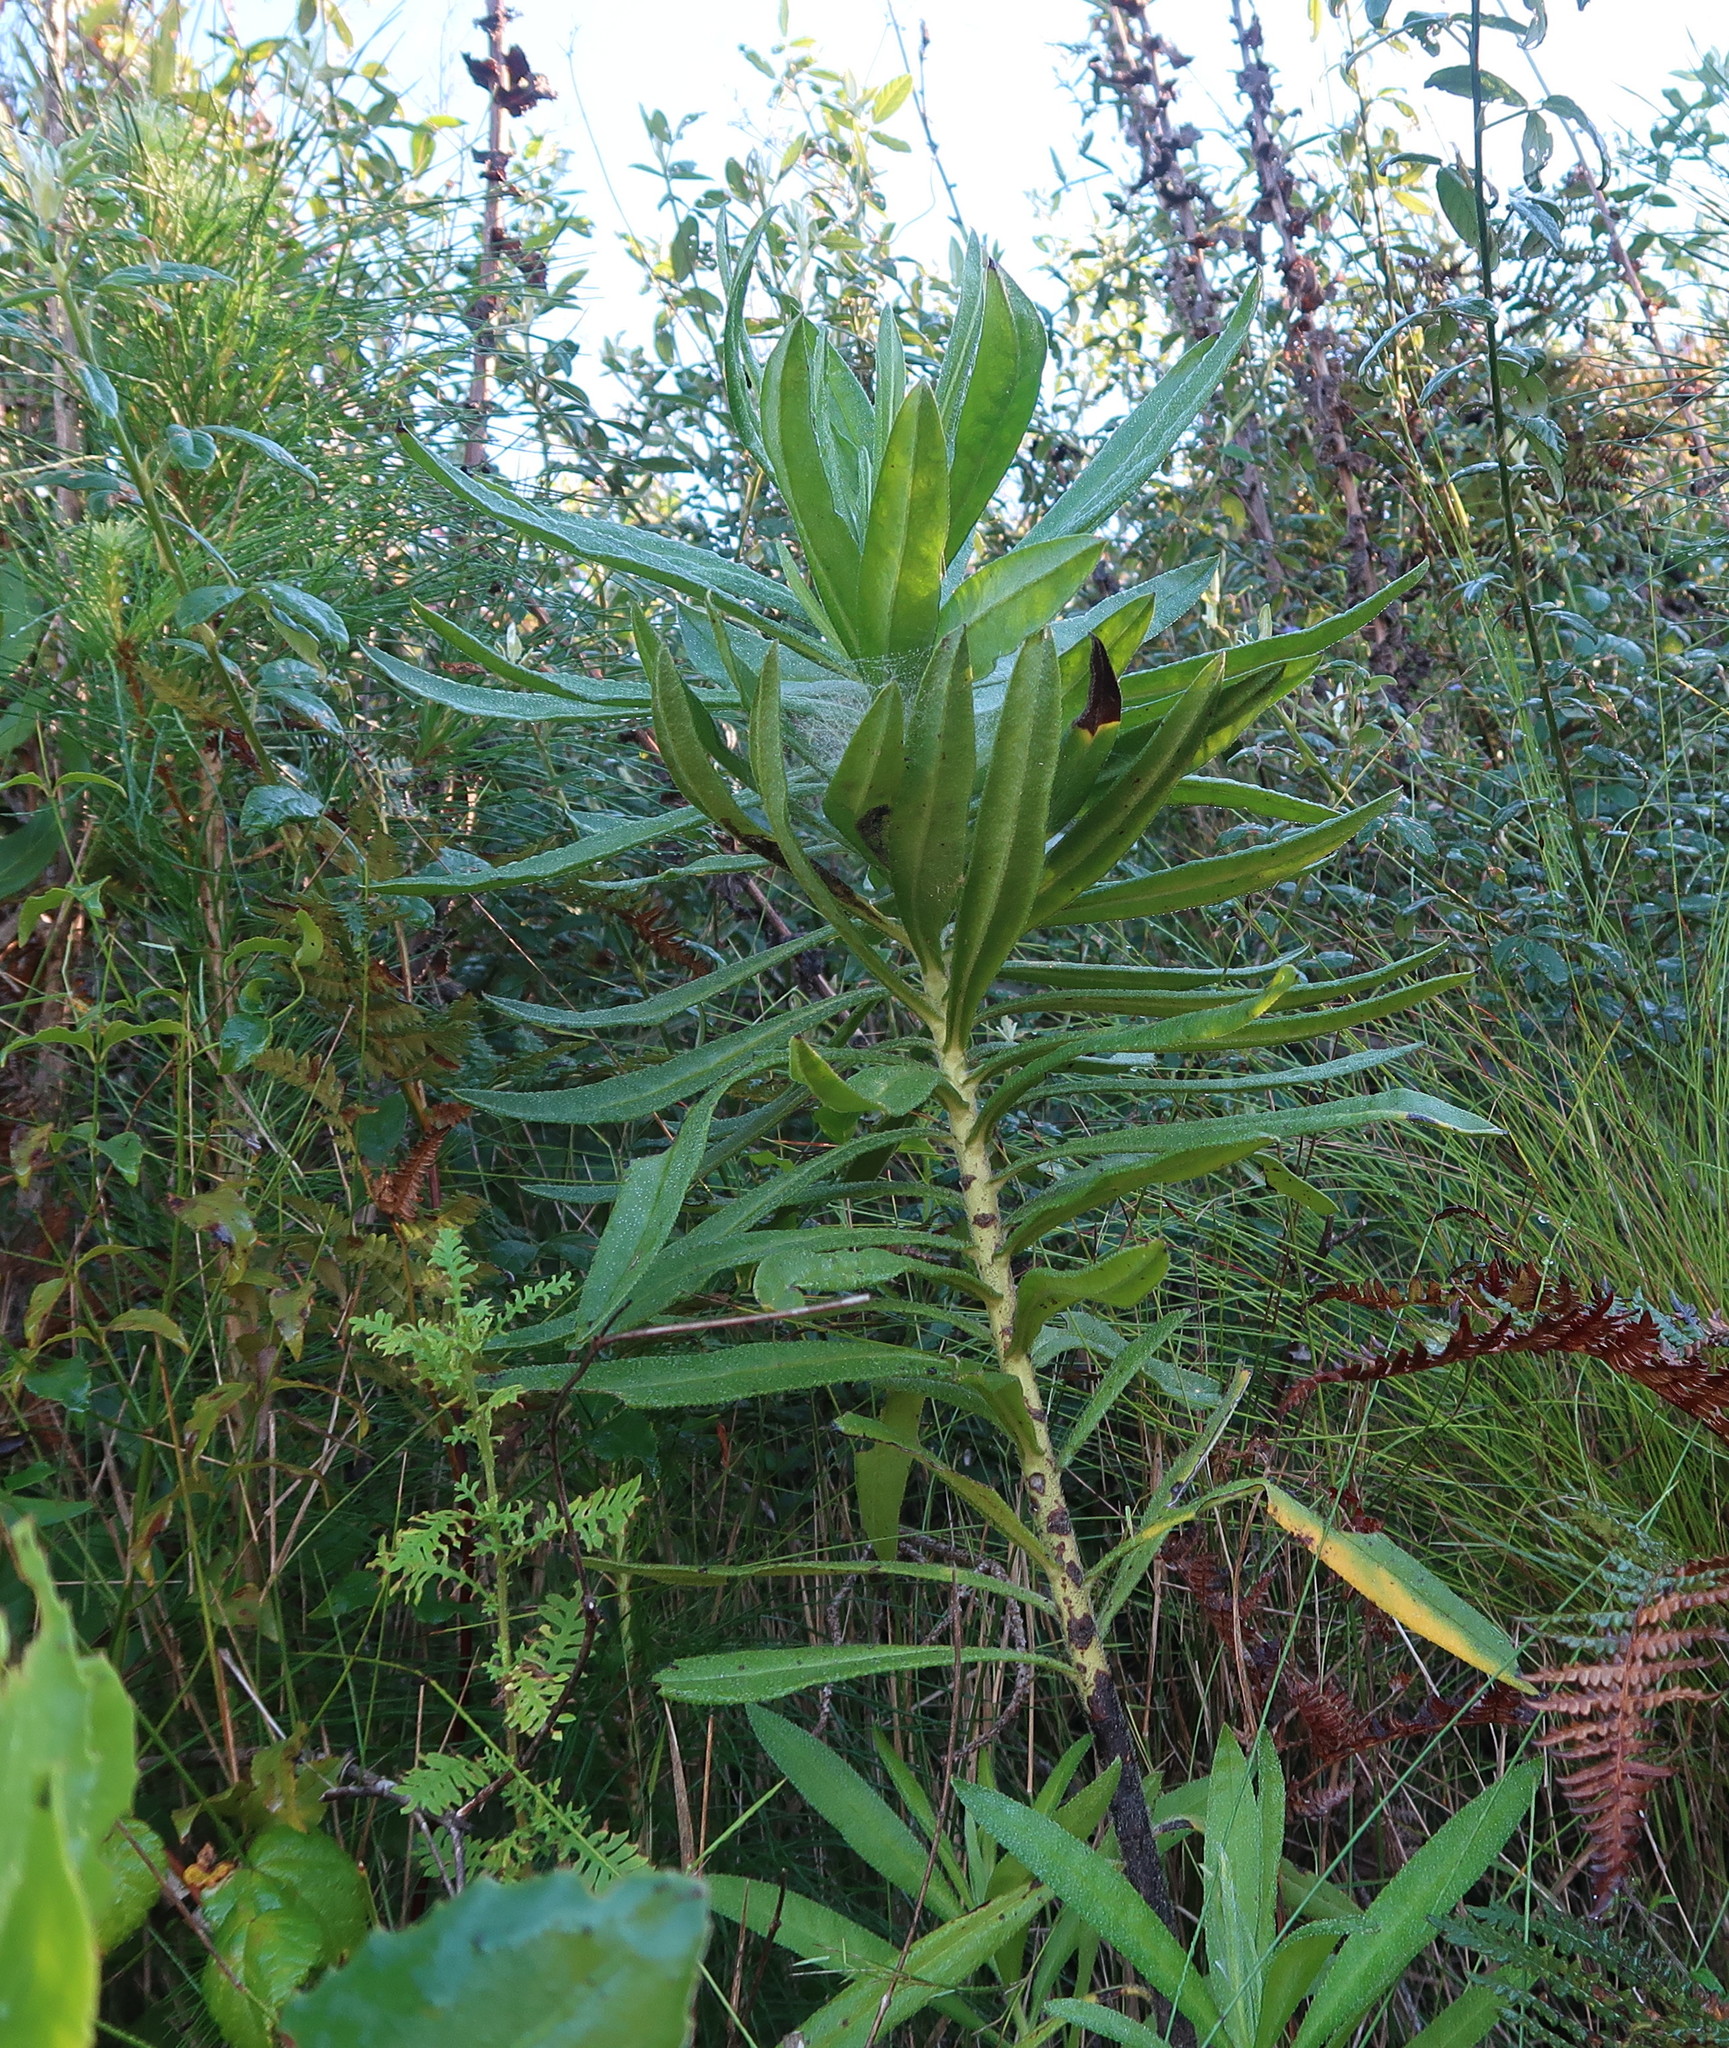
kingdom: Plantae
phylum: Tracheophyta
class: Magnoliopsida
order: Boraginales
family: Boraginaceae
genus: Lobostemon
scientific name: Lobostemon belliformis
